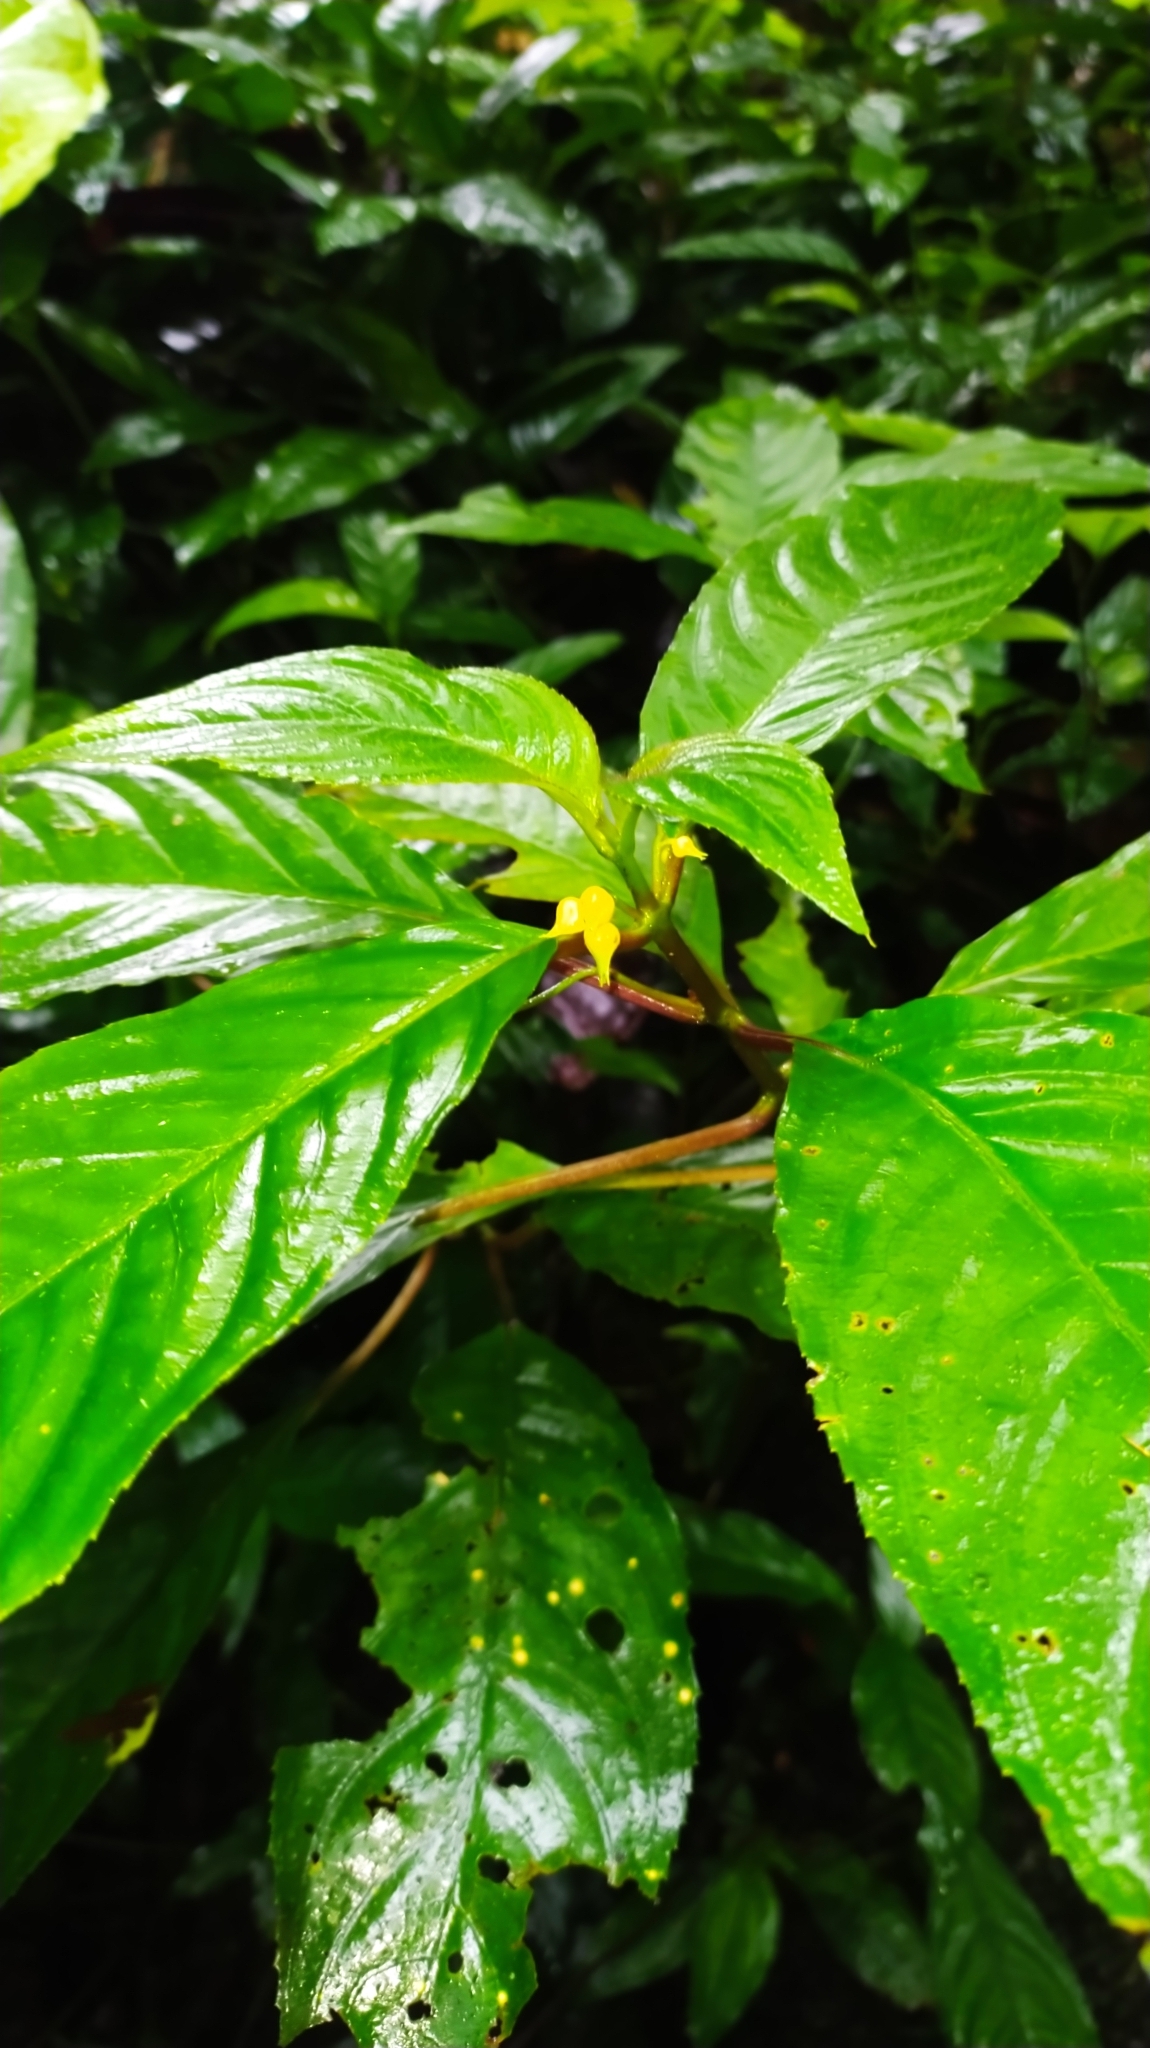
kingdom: Plantae
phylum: Tracheophyta
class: Magnoliopsida
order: Lamiales
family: Gesneriaceae
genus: Besleria
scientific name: Besleria insolita
